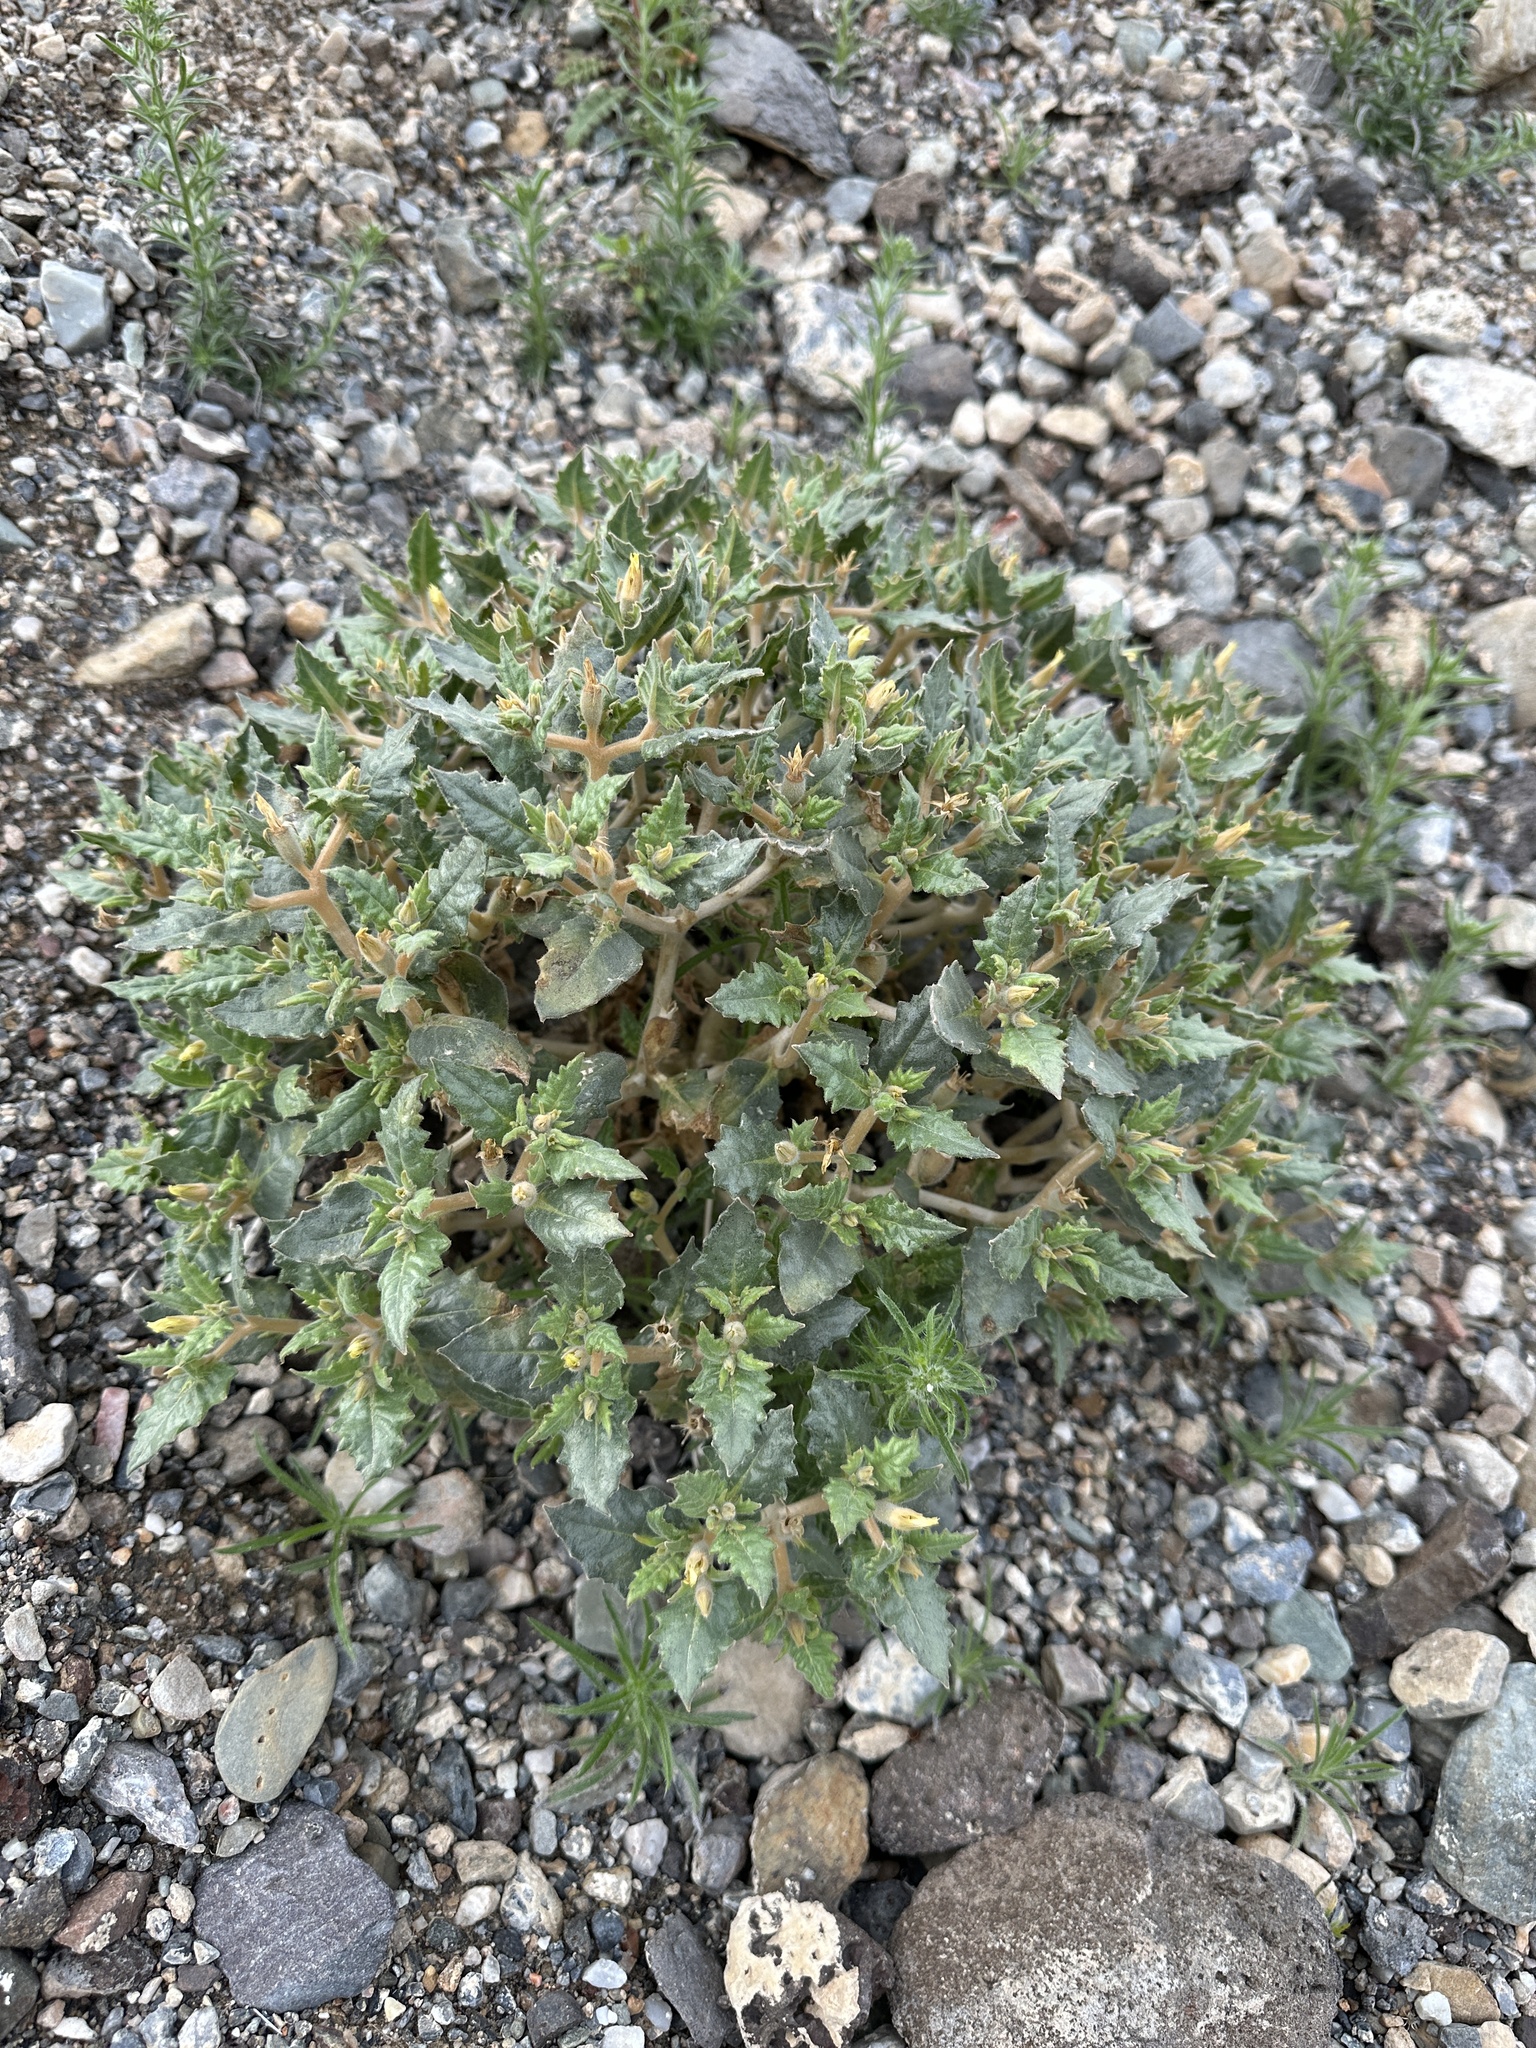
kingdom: Plantae
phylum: Tracheophyta
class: Magnoliopsida
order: Cornales
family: Loasaceae
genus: Mentzelia
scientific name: Mentzelia reflexa
